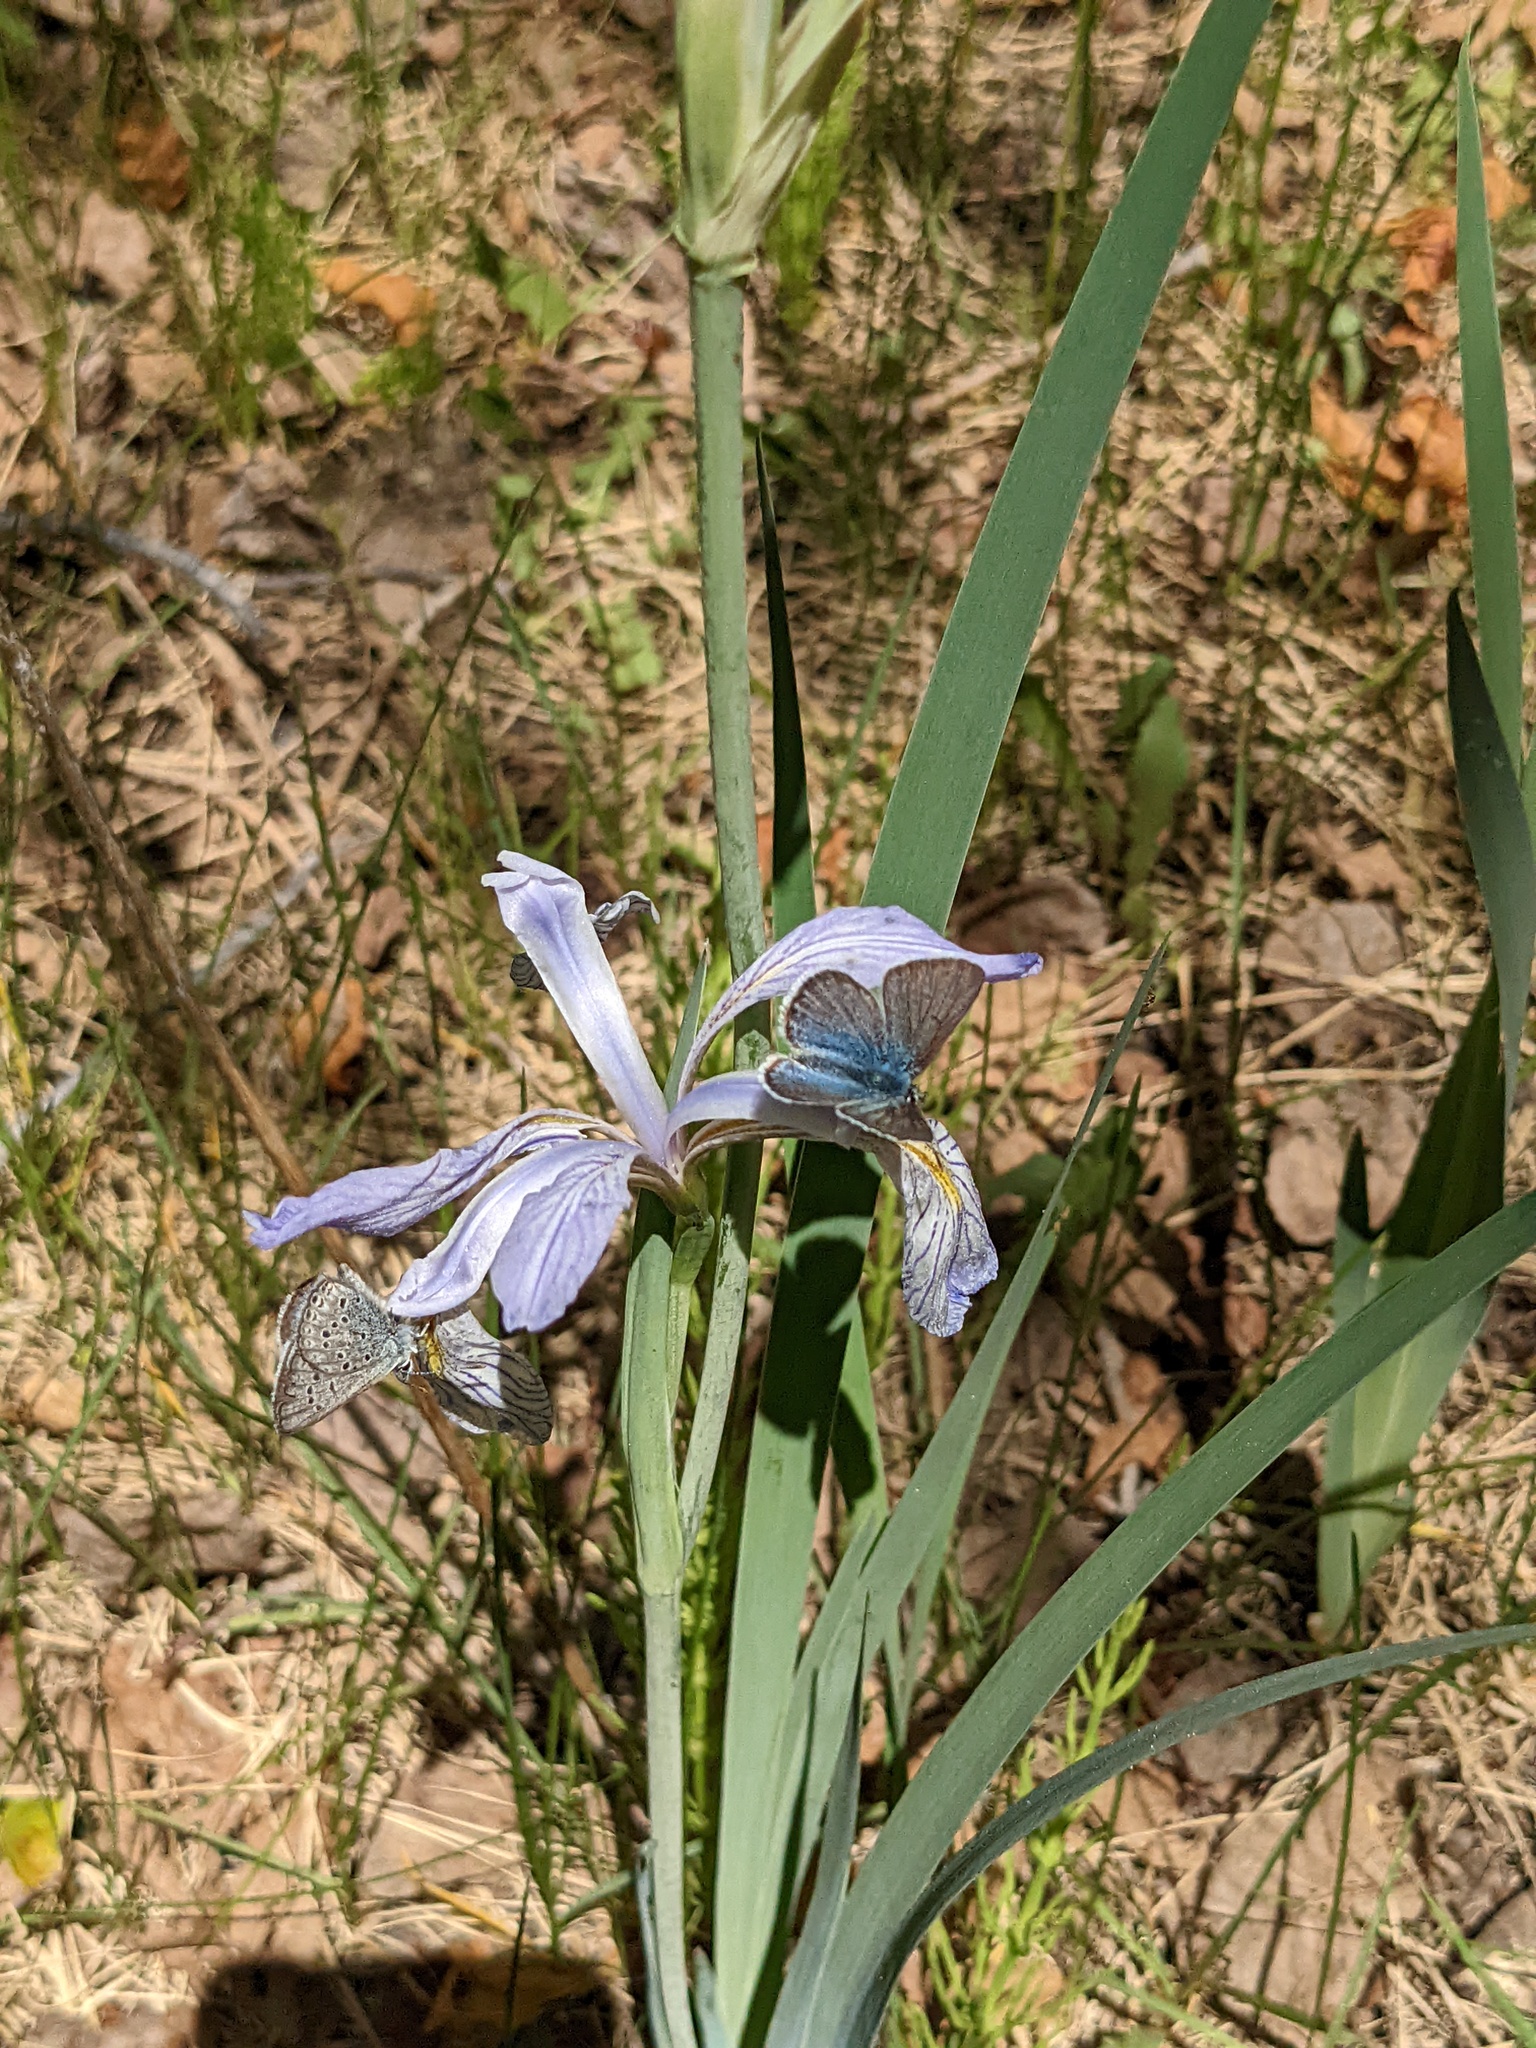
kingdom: Animalia
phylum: Arthropoda
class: Insecta
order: Lepidoptera
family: Lycaenidae
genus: Icaricia
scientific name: Icaricia saepiolus
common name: Greenish blue
